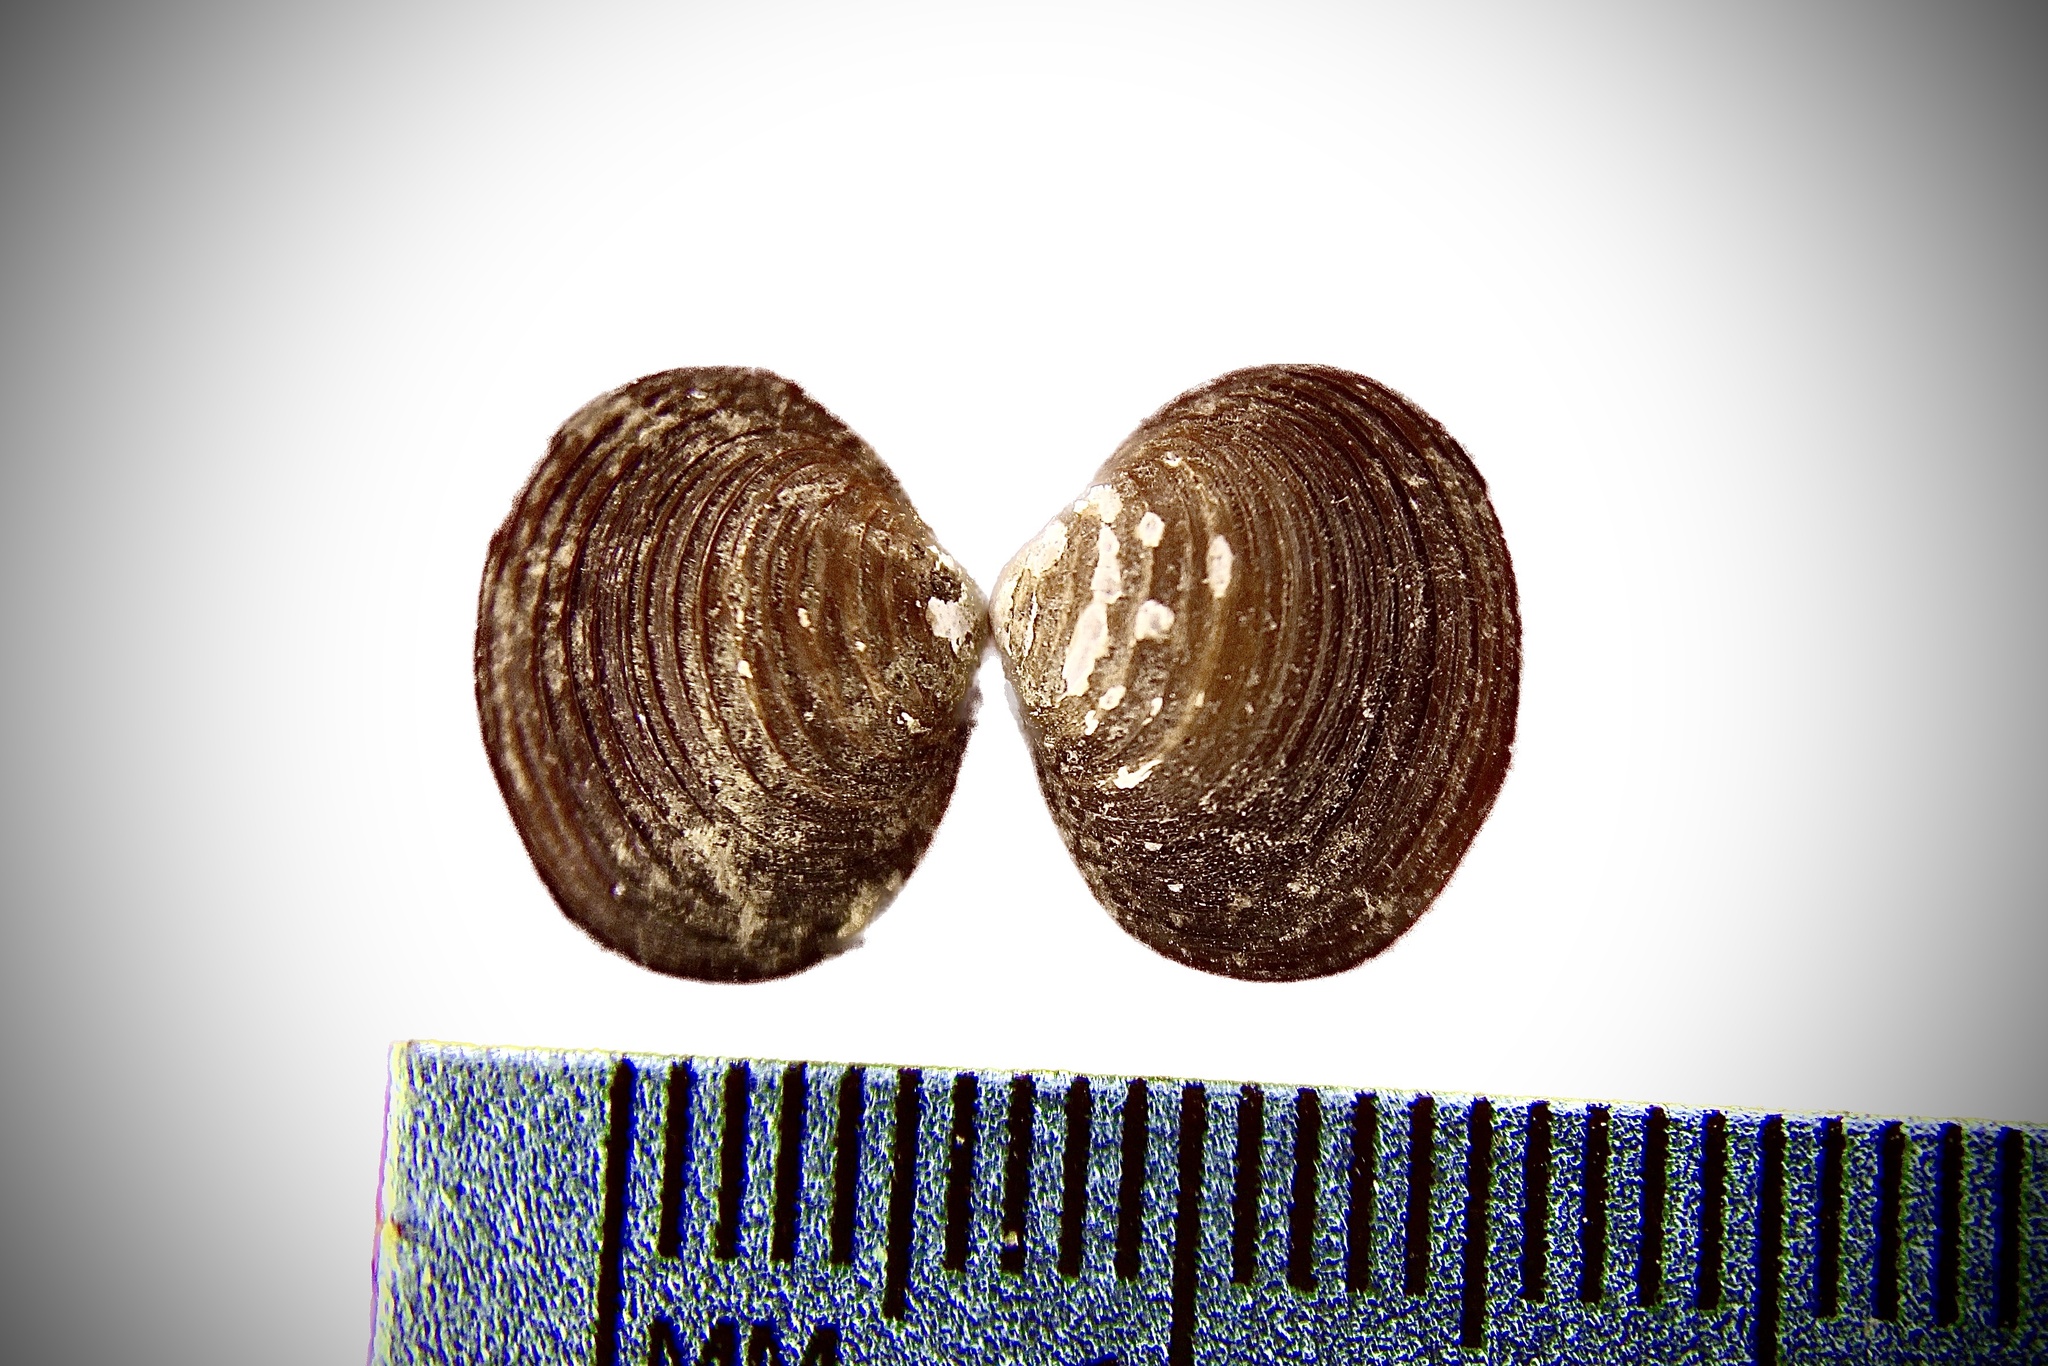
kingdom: Animalia
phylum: Mollusca
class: Bivalvia
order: Venerida
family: Cyrenidae
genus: Corbicula
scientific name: Corbicula fluminea
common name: Asian clam
